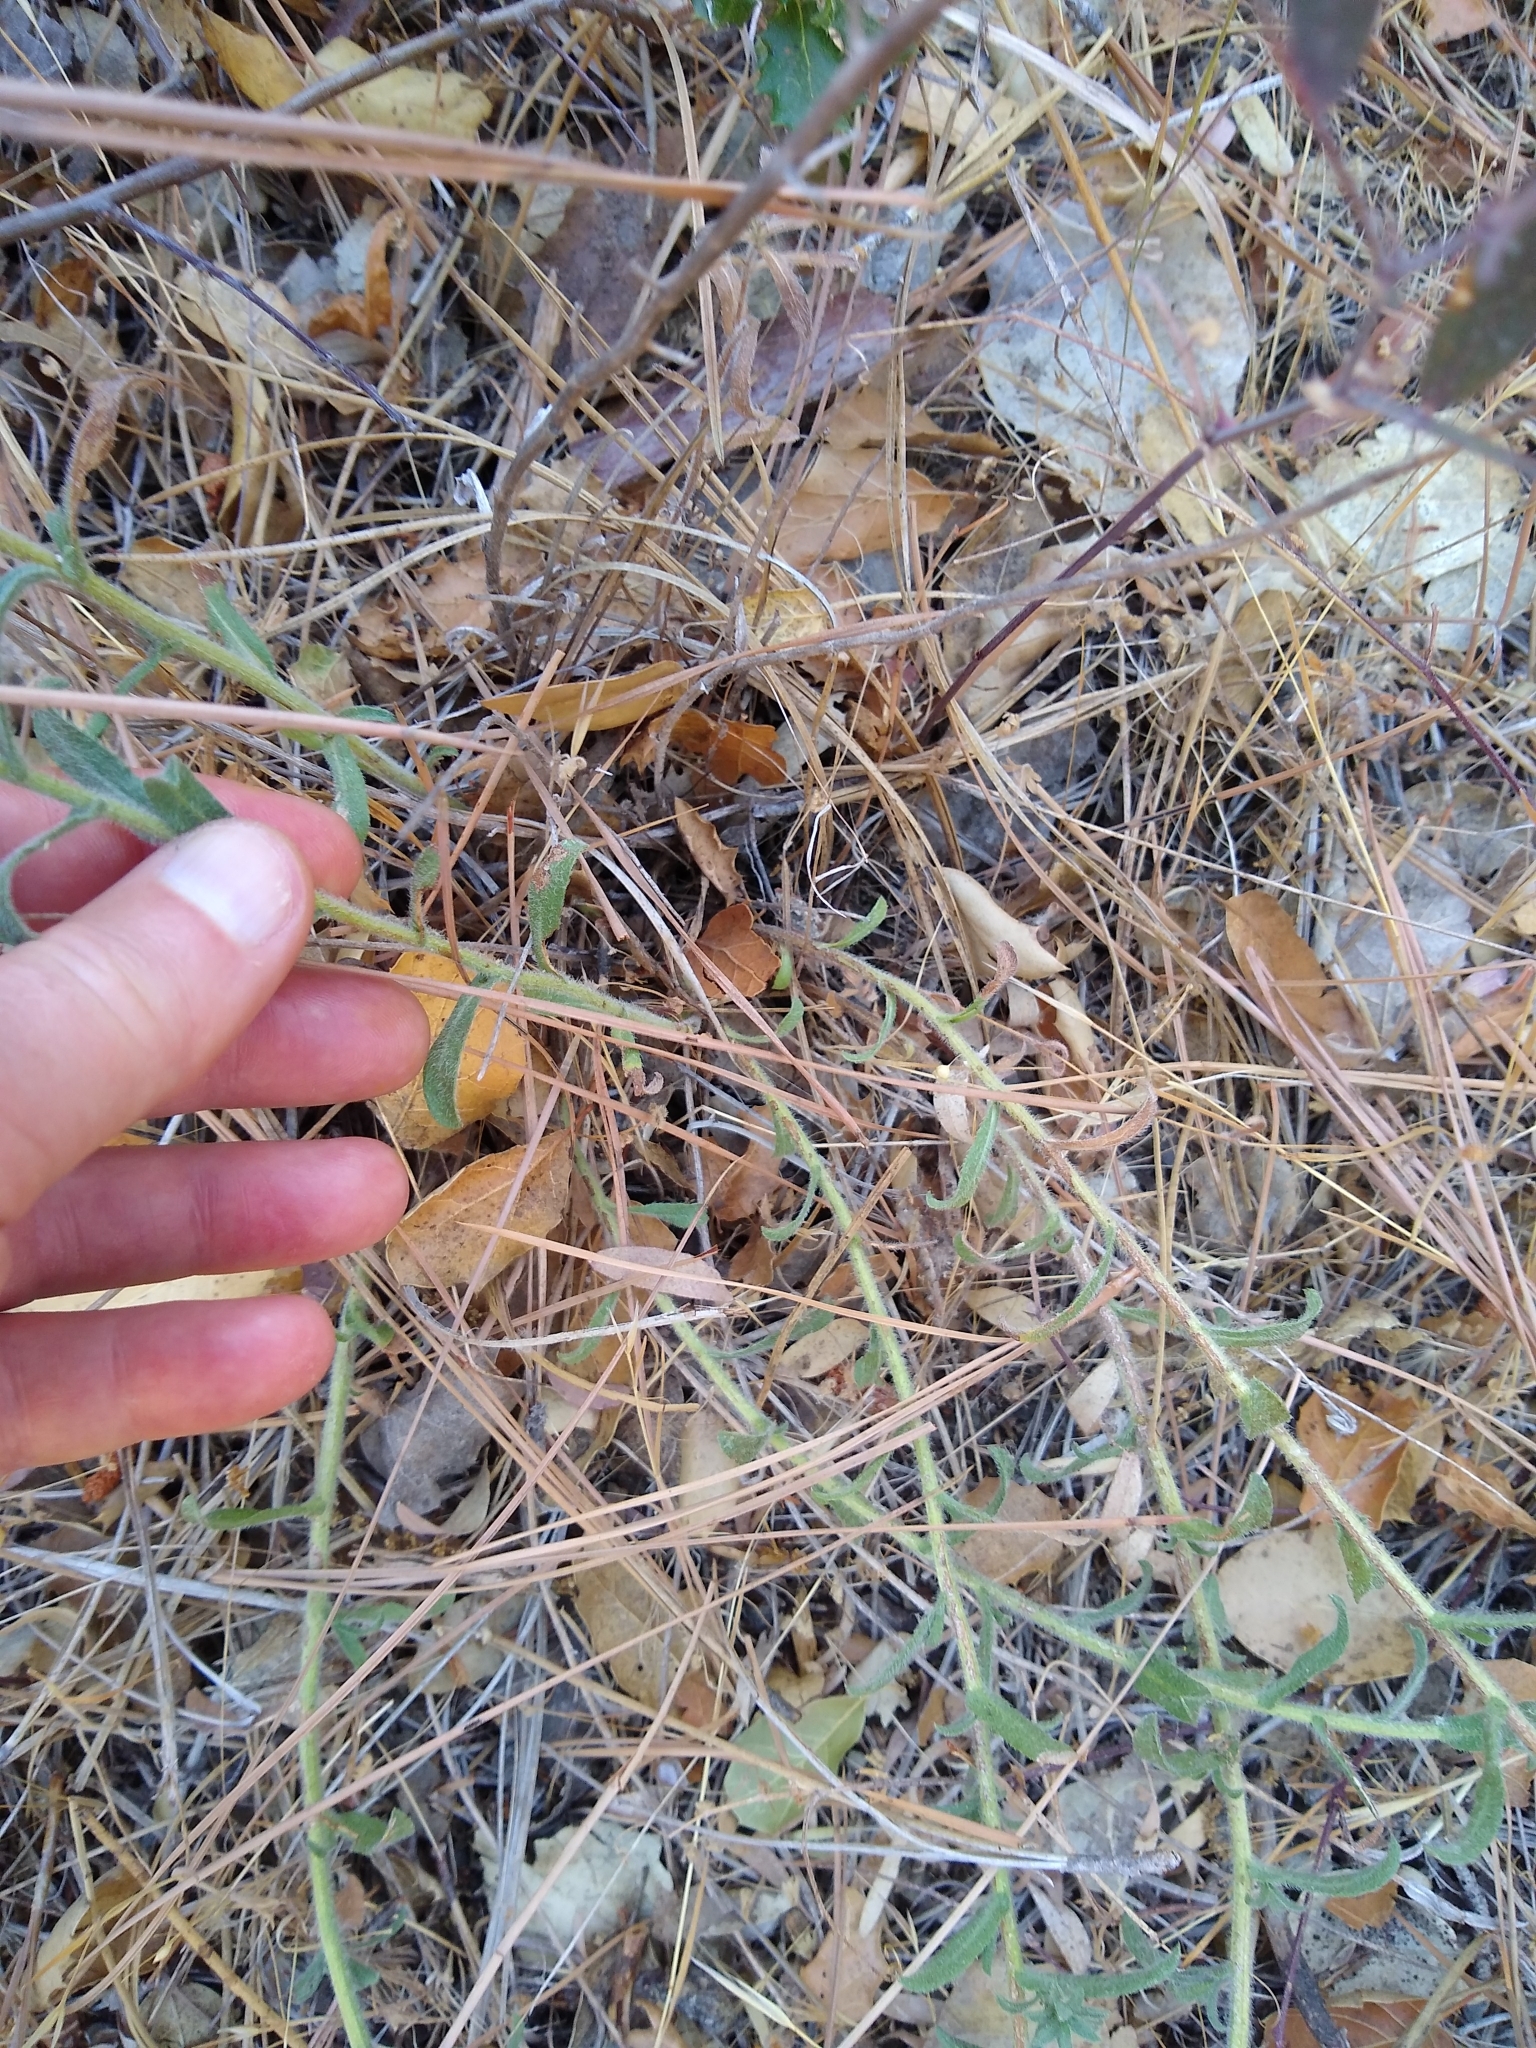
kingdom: Plantae
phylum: Tracheophyta
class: Magnoliopsida
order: Asterales
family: Asteraceae
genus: Heterotheca
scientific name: Heterotheca oregona
